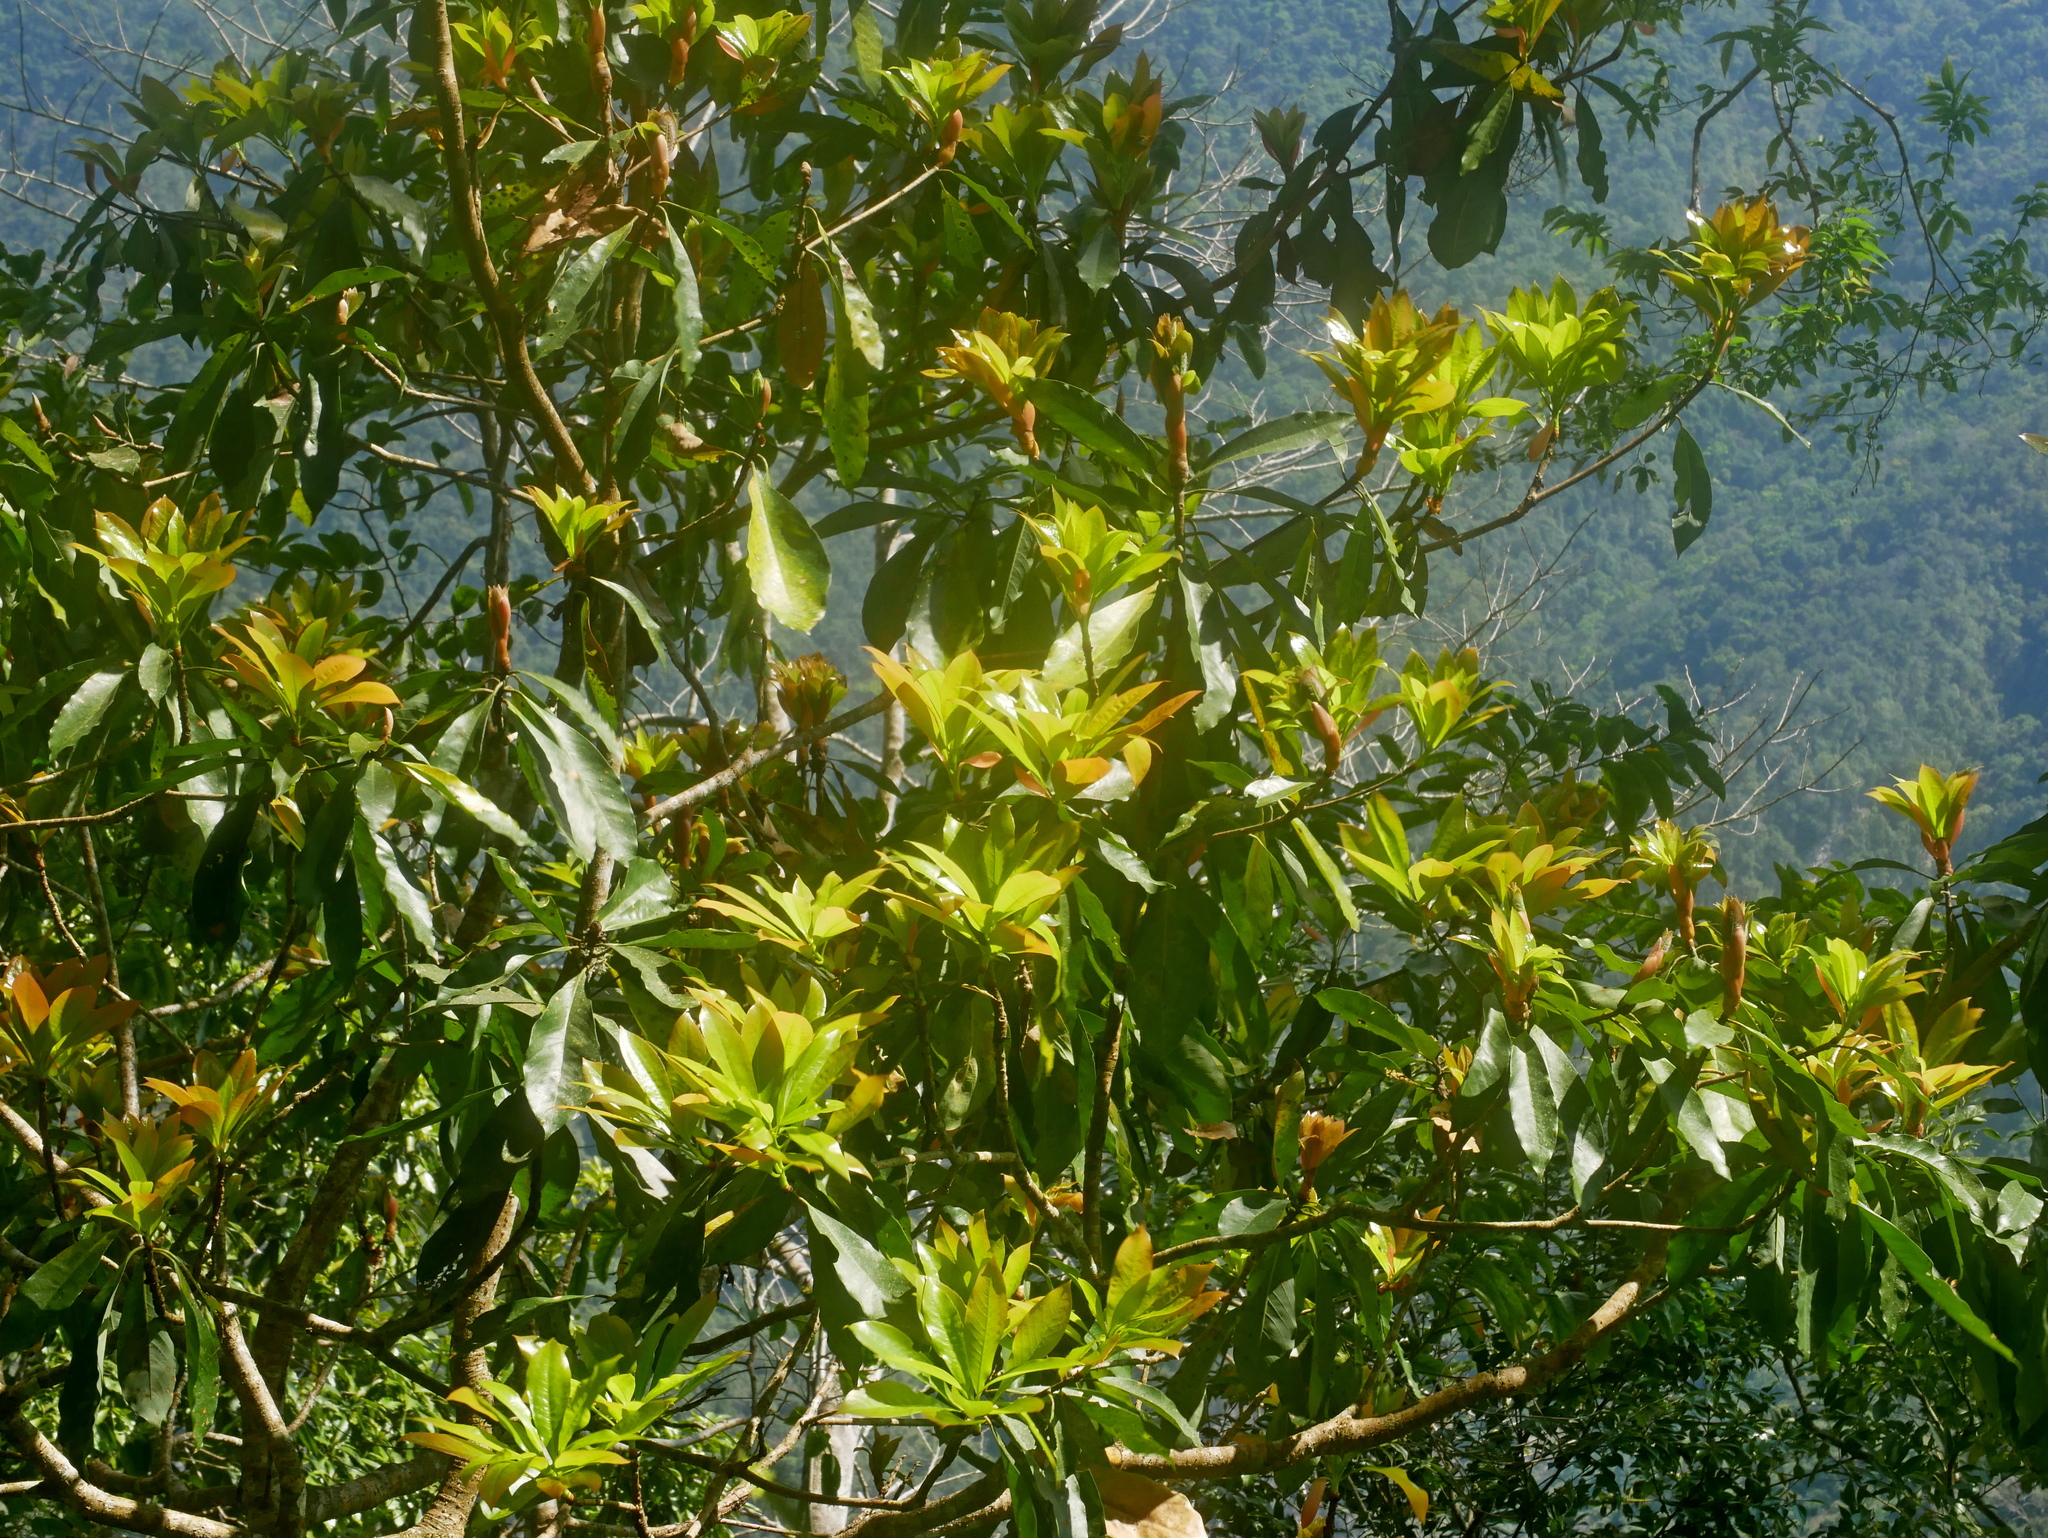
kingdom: Plantae
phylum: Tracheophyta
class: Magnoliopsida
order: Laurales
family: Lauraceae
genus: Machilus
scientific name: Machilus japonica
